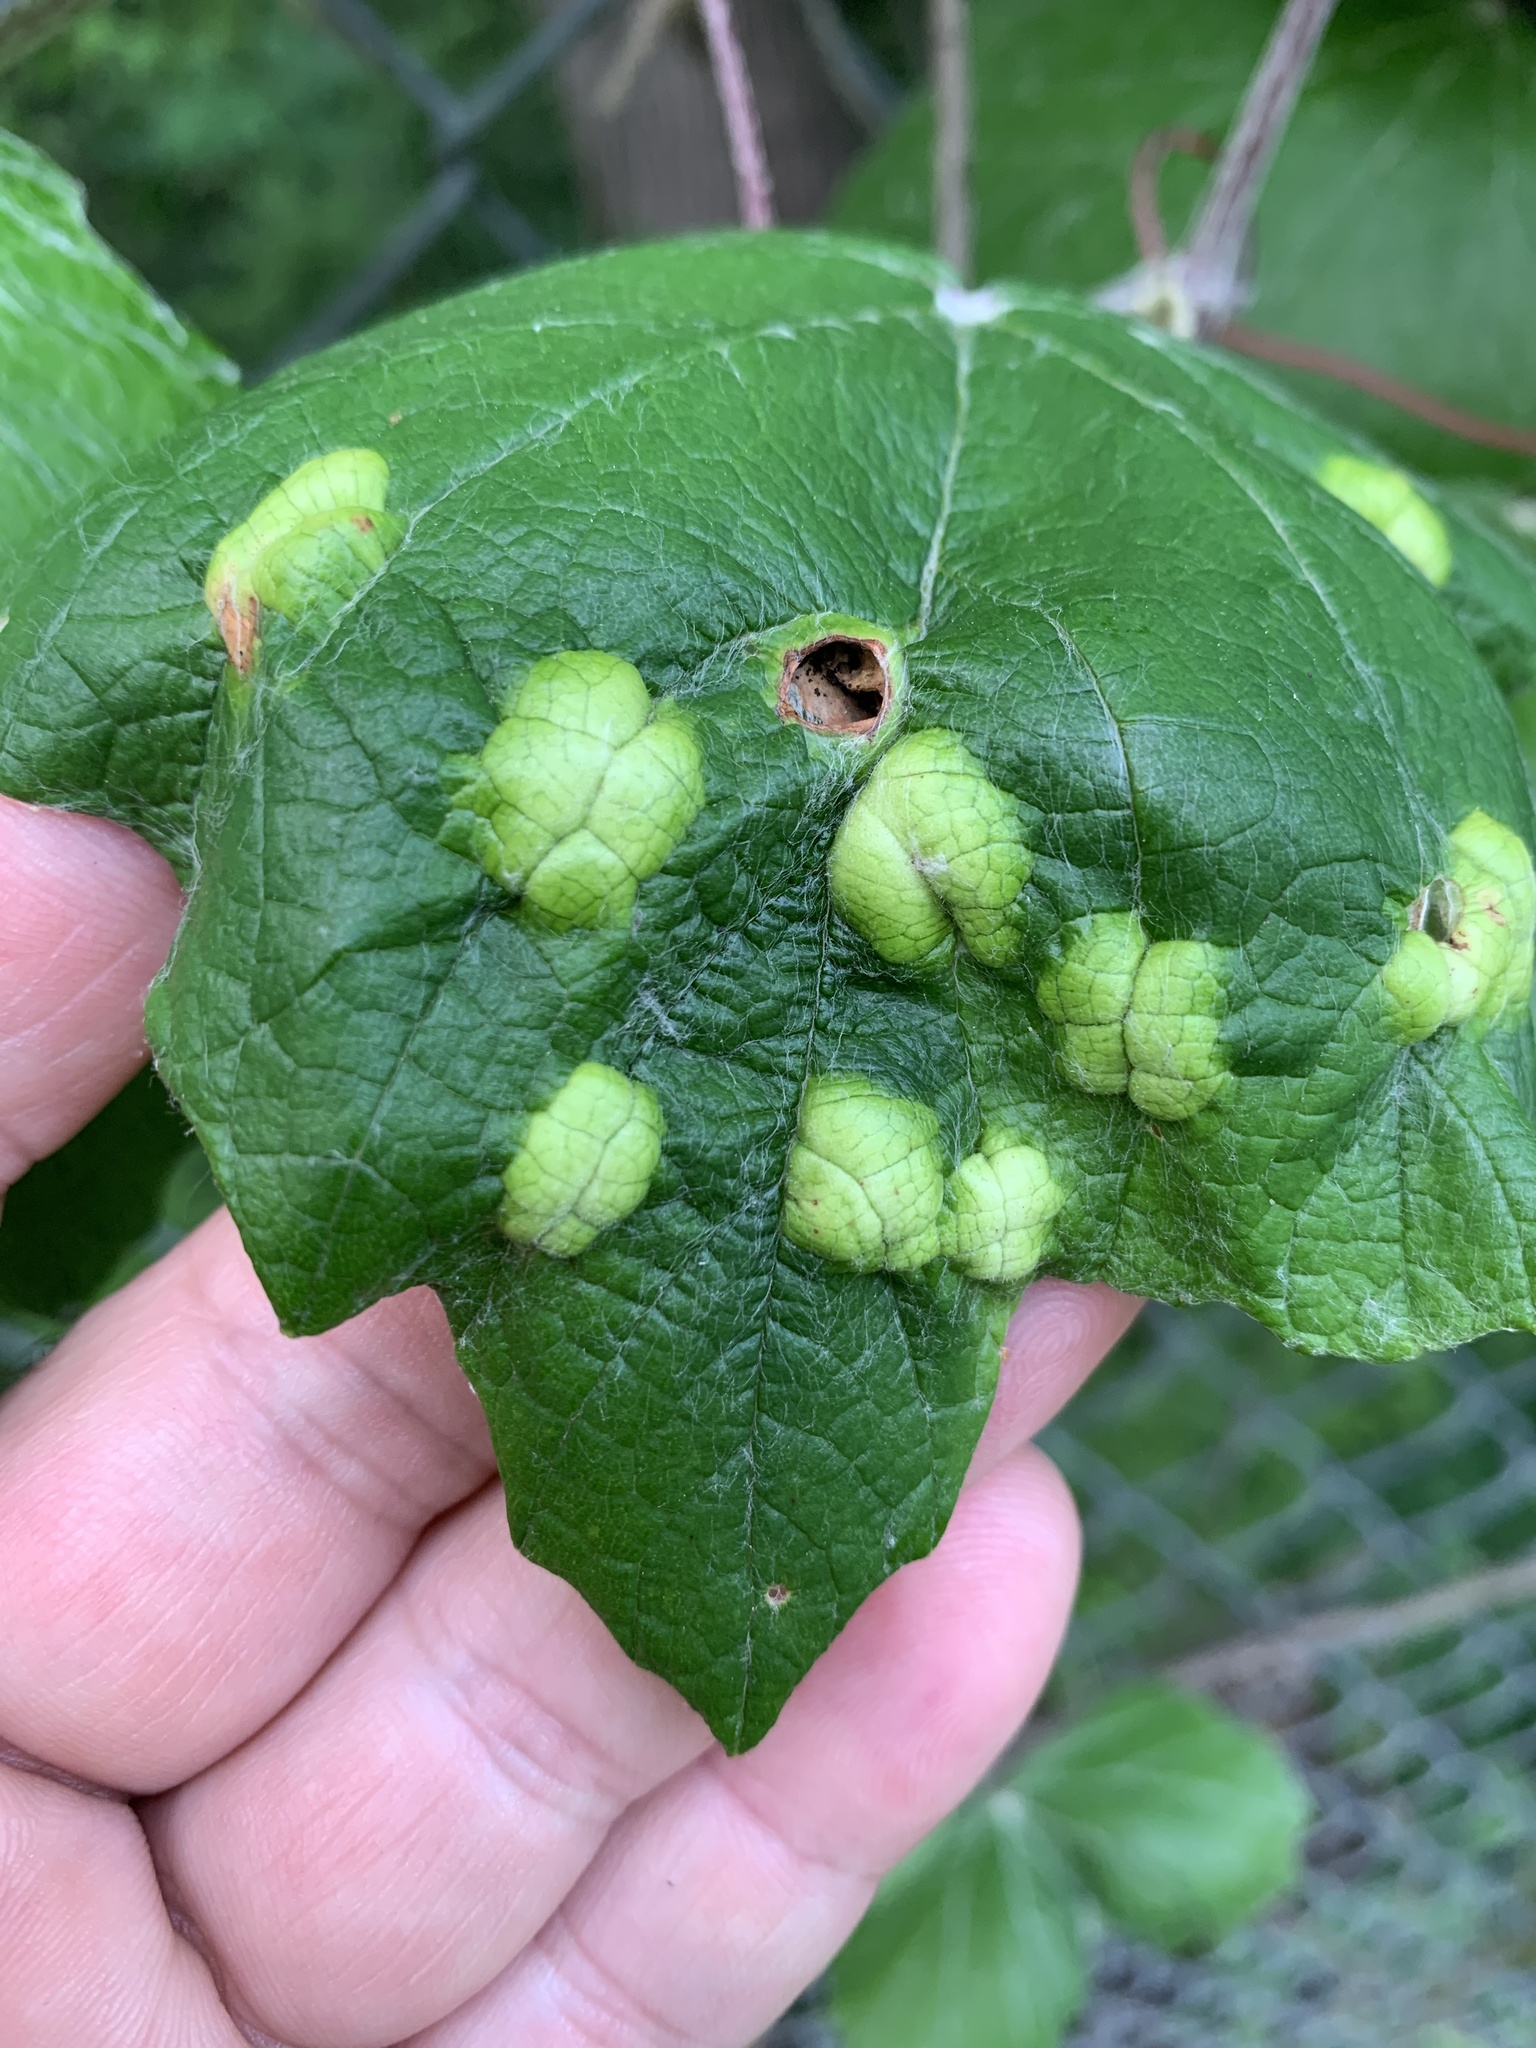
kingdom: Animalia
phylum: Arthropoda
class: Insecta
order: Lepidoptera
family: Heliozelidae
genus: Heliozela
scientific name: Heliozela aesella
